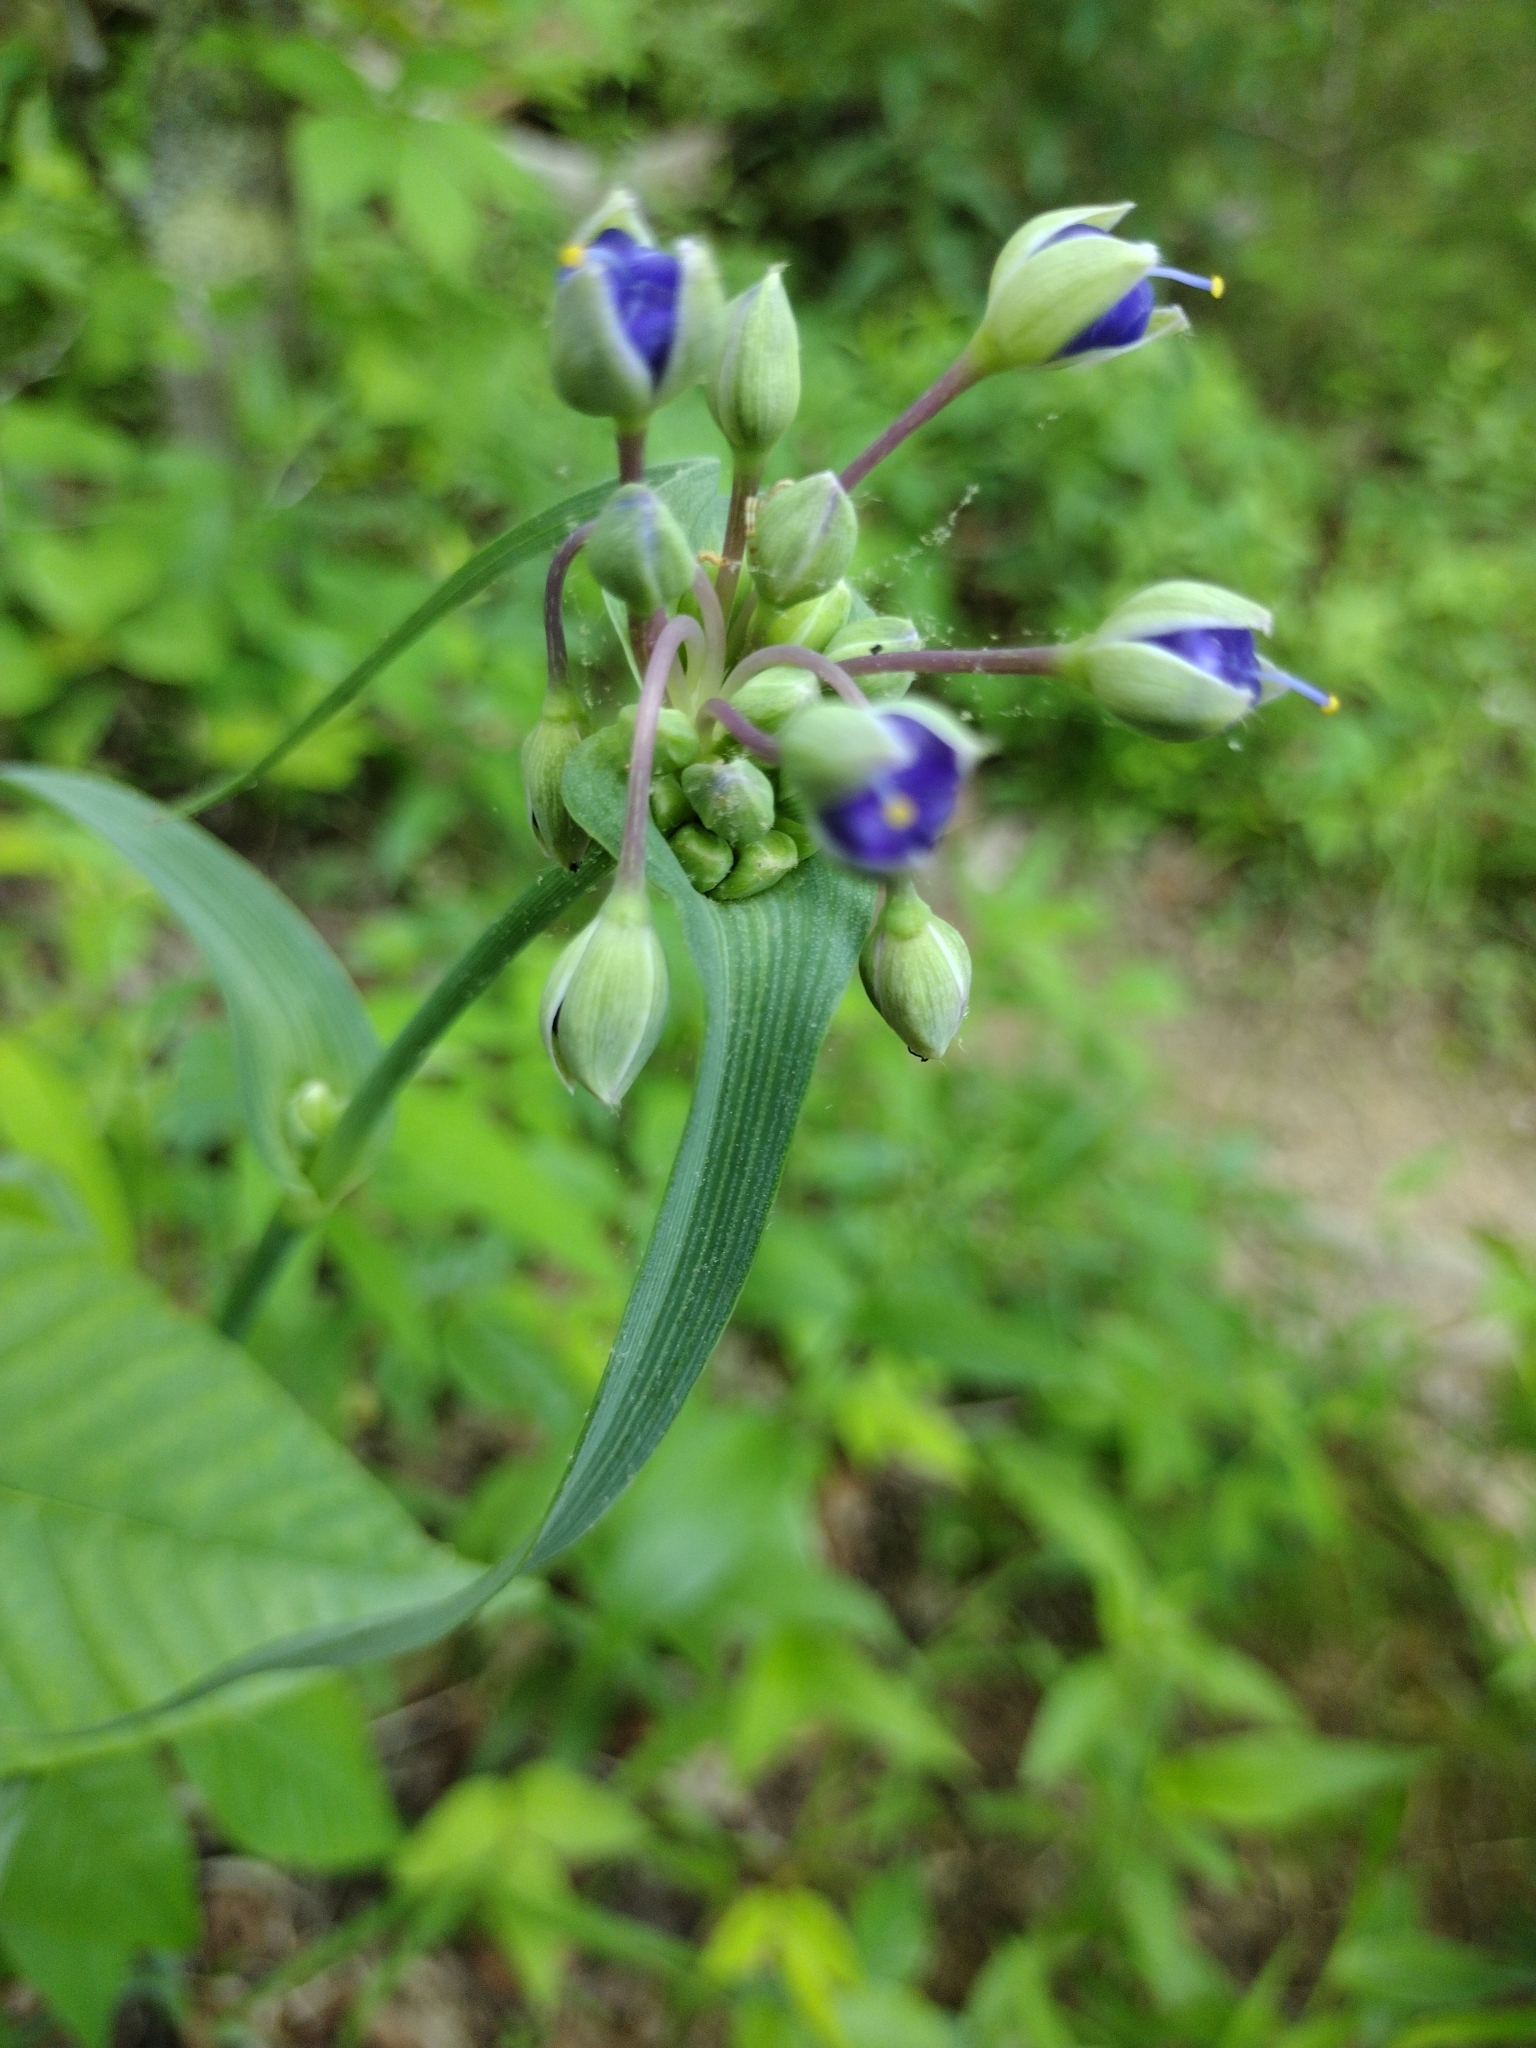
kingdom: Plantae
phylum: Tracheophyta
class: Liliopsida
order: Commelinales
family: Commelinaceae
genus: Tradescantia
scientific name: Tradescantia ohiensis
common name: Ohio spiderwort
